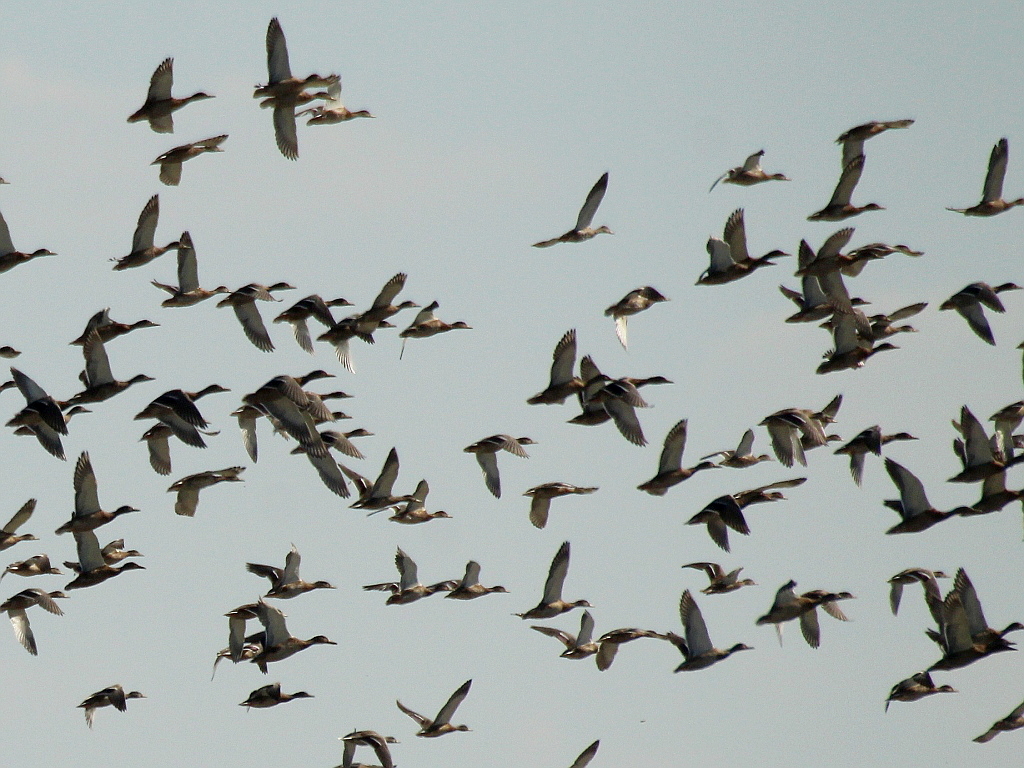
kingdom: Animalia
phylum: Chordata
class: Aves
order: Anseriformes
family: Anatidae
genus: Anas
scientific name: Anas platyrhynchos
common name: Mallard
